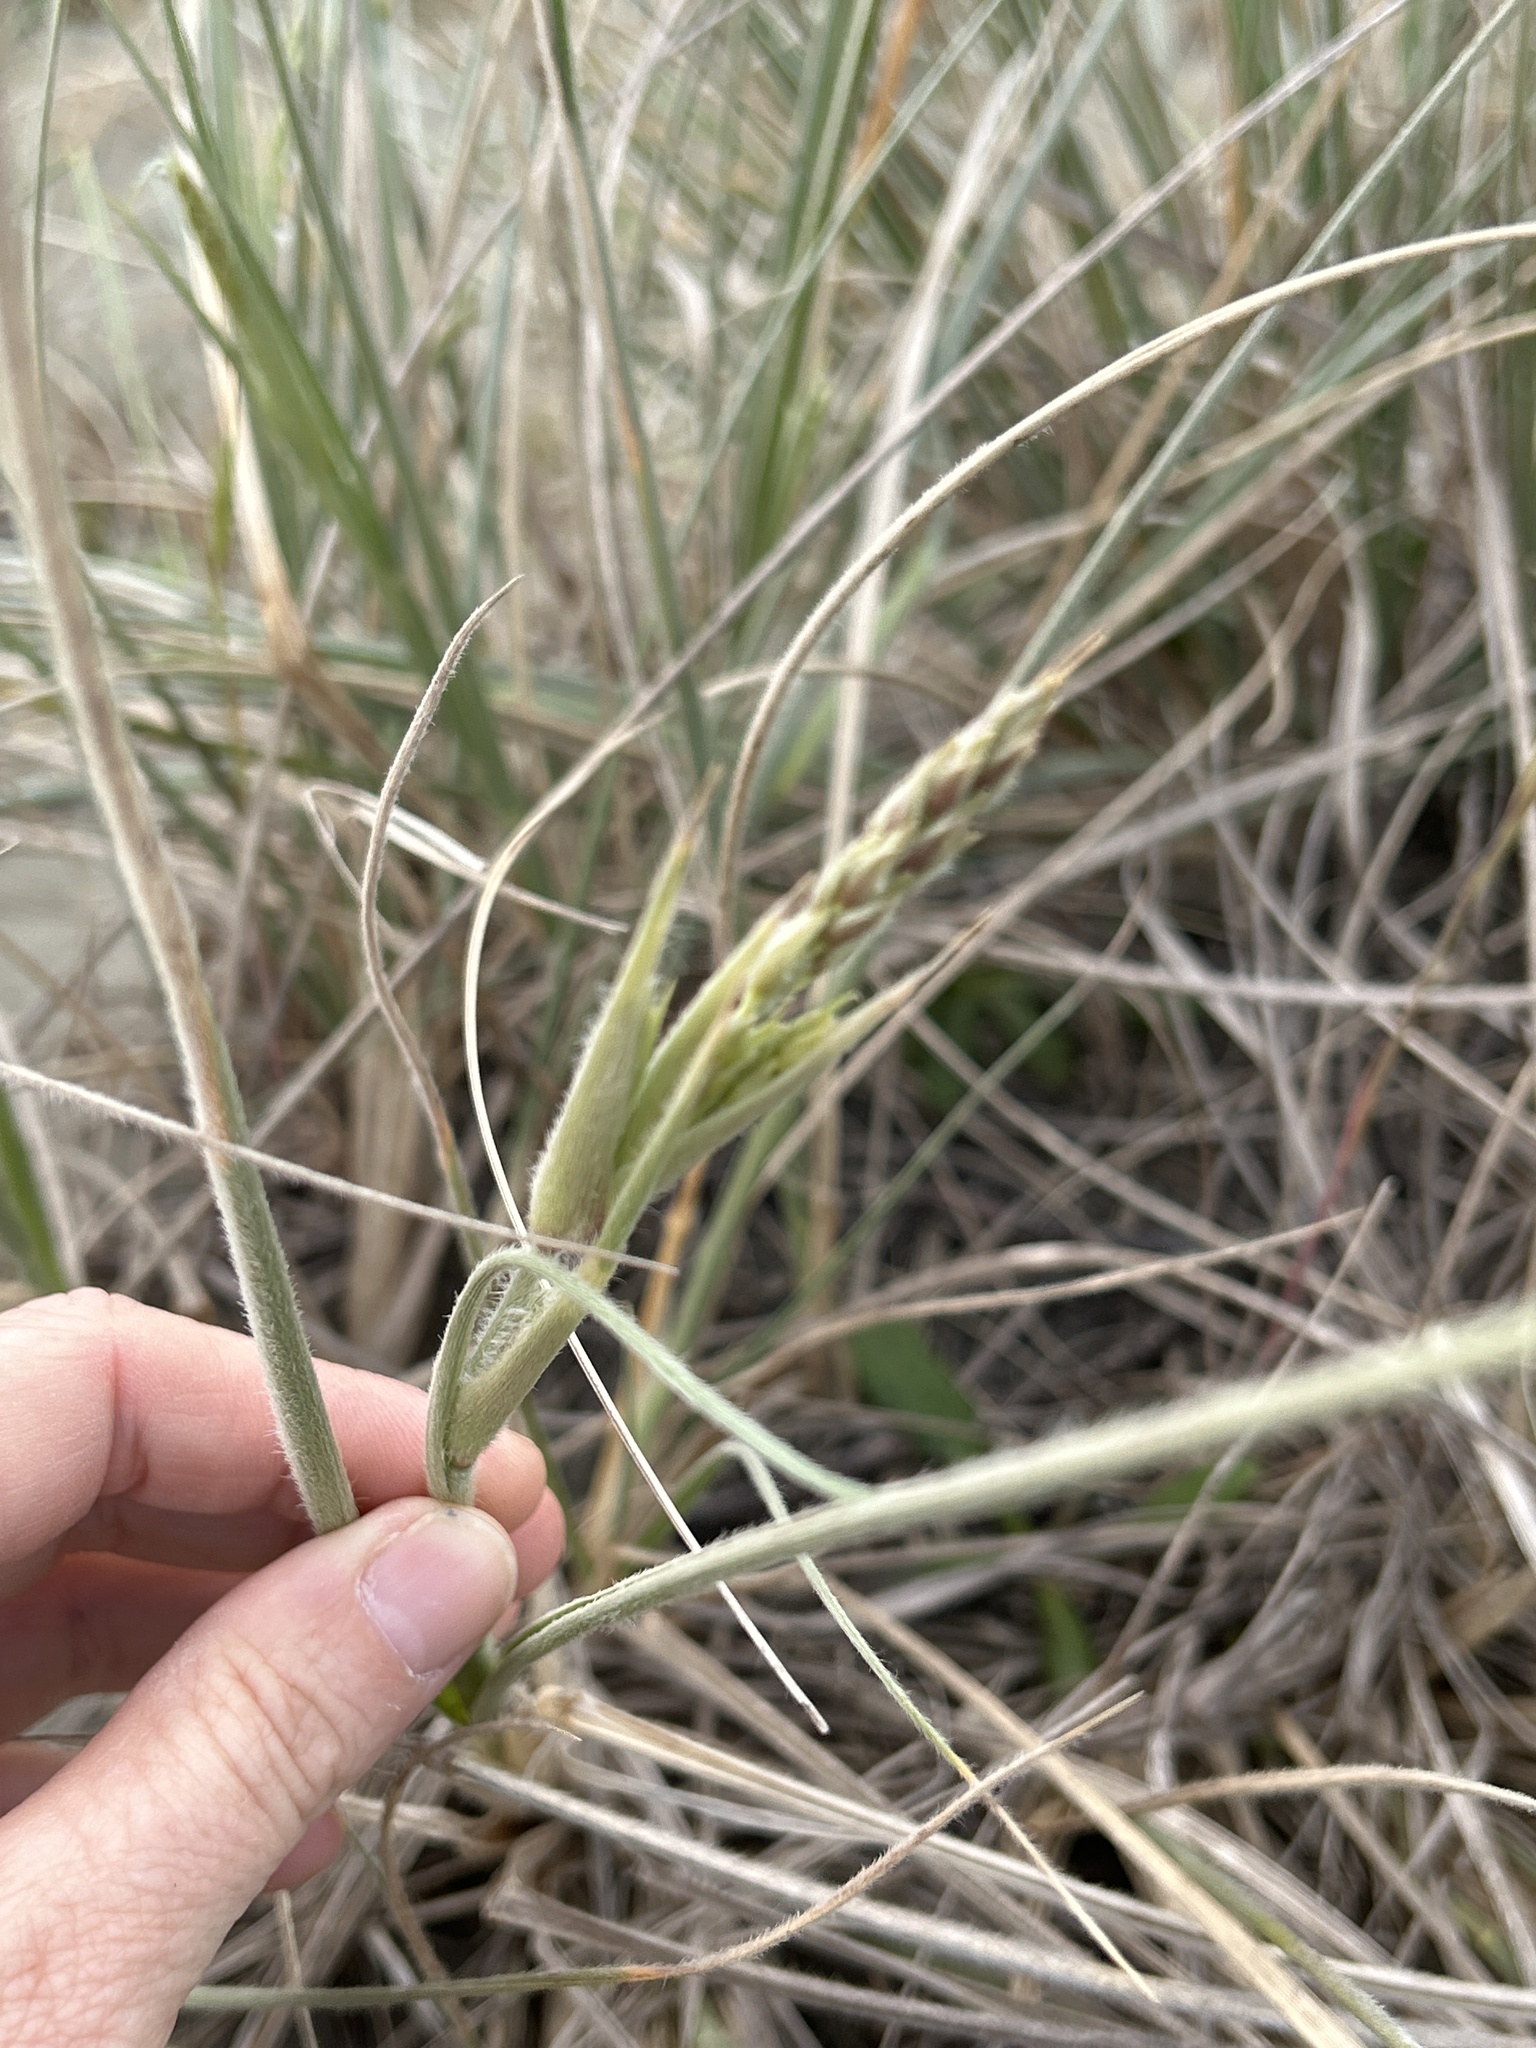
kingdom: Plantae
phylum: Tracheophyta
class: Liliopsida
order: Poales
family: Poaceae
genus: Spinifex
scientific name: Spinifex sericeus
